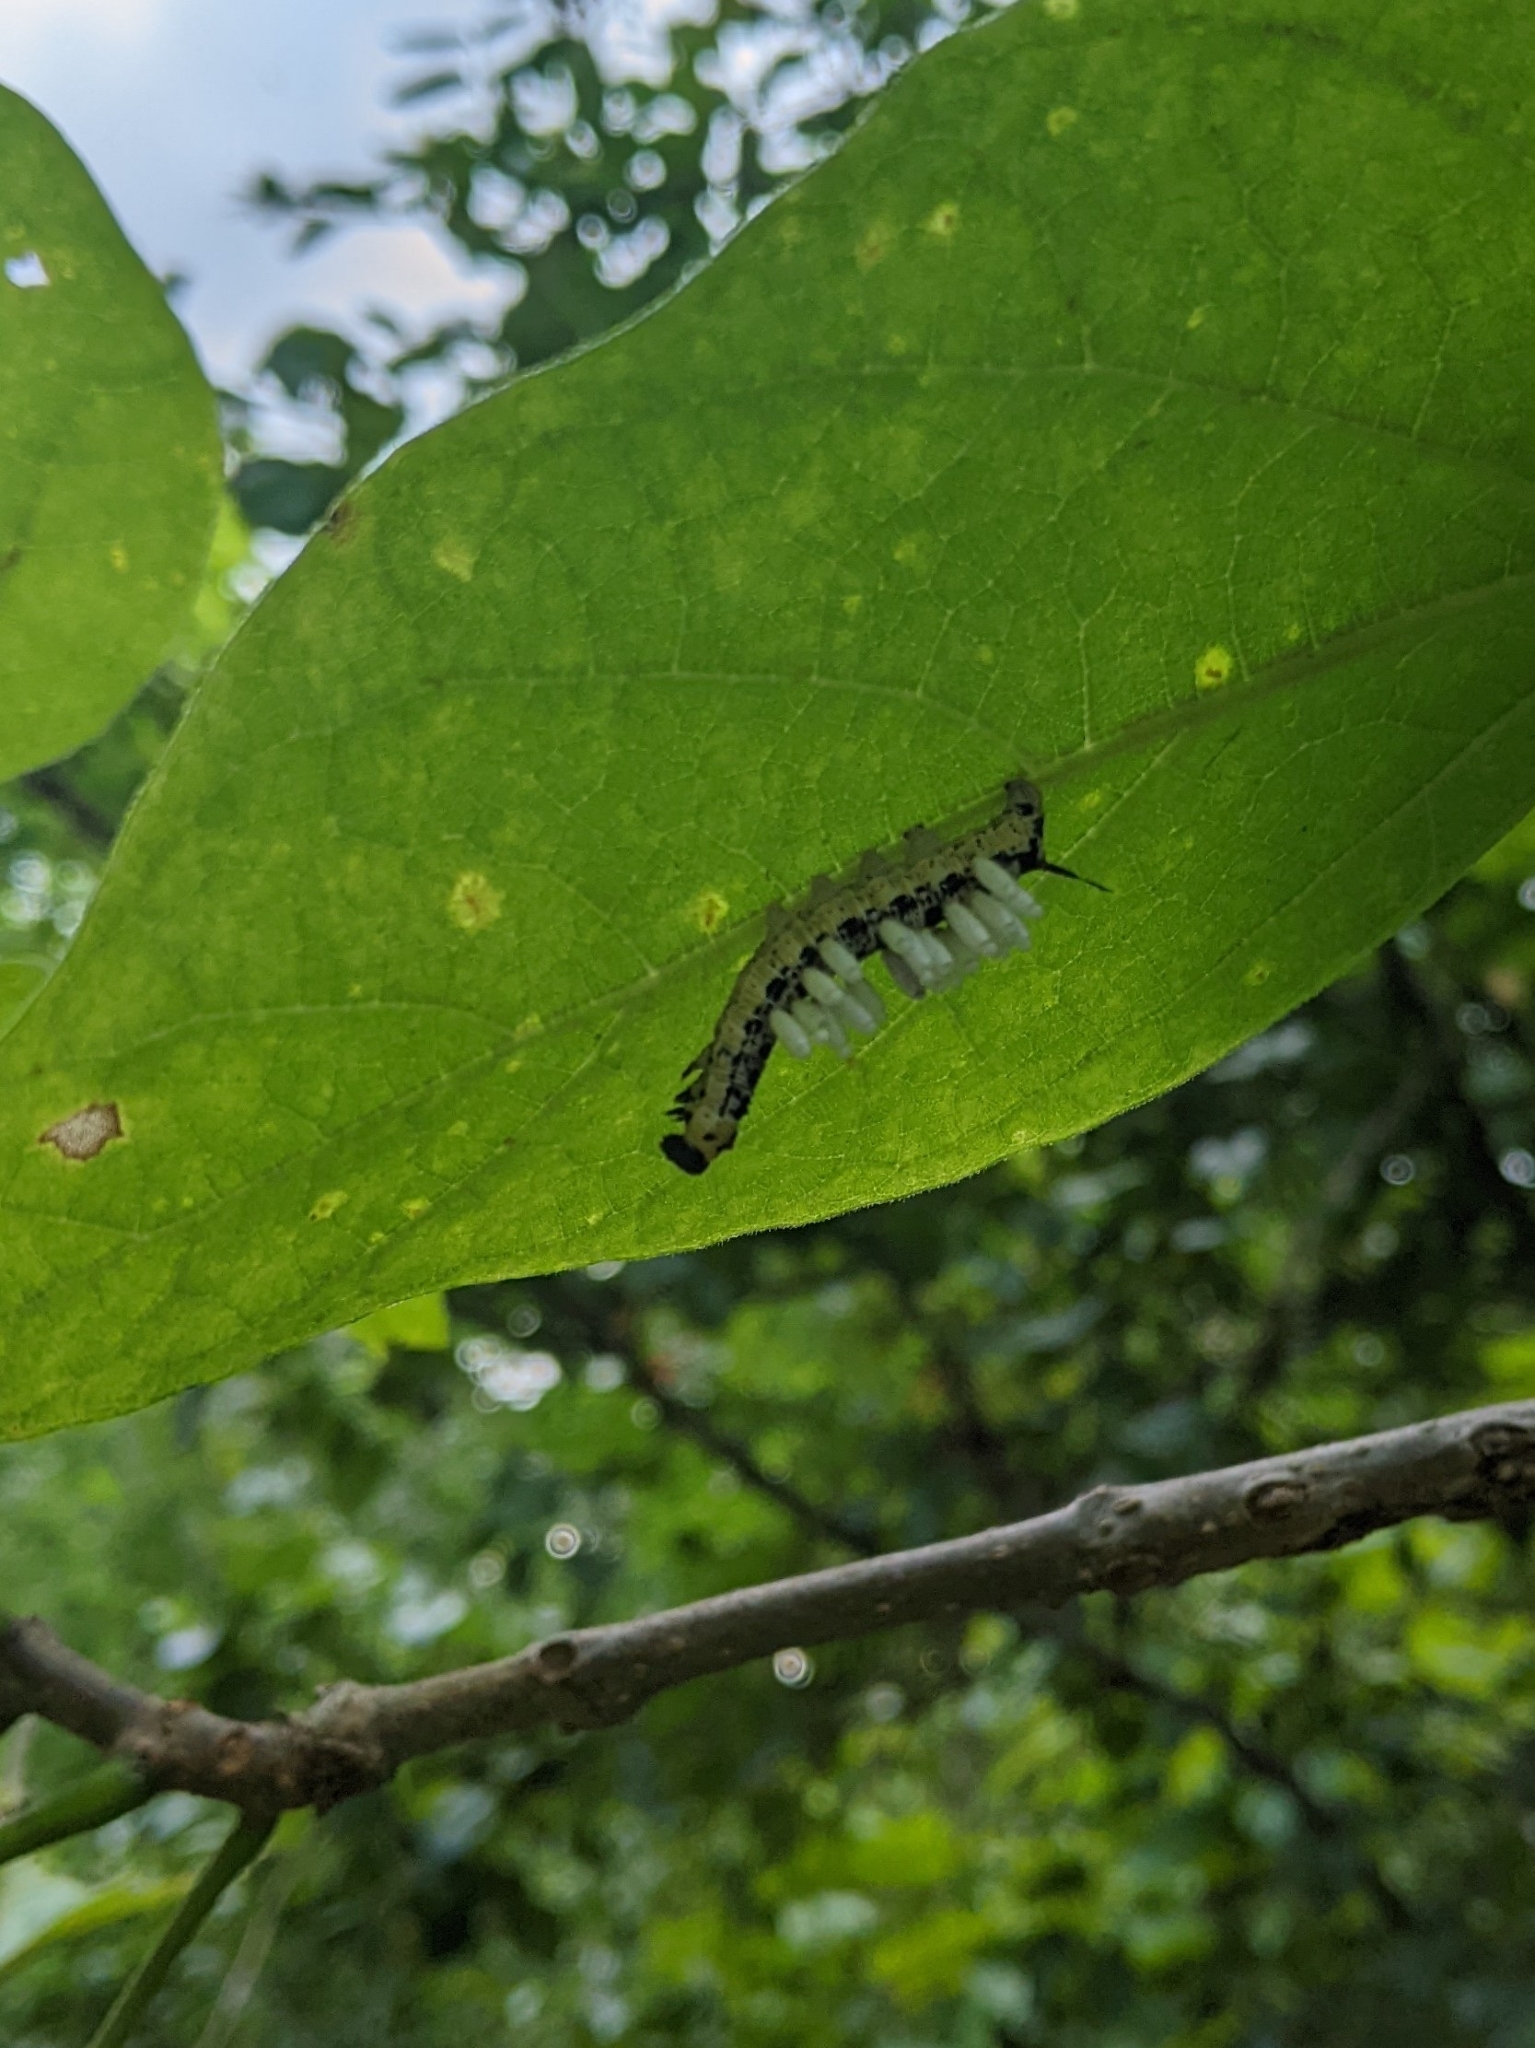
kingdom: Animalia
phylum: Arthropoda
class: Insecta
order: Lepidoptera
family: Sphingidae
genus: Ceratomia
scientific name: Ceratomia catalpae
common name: Catalpa hornworm
